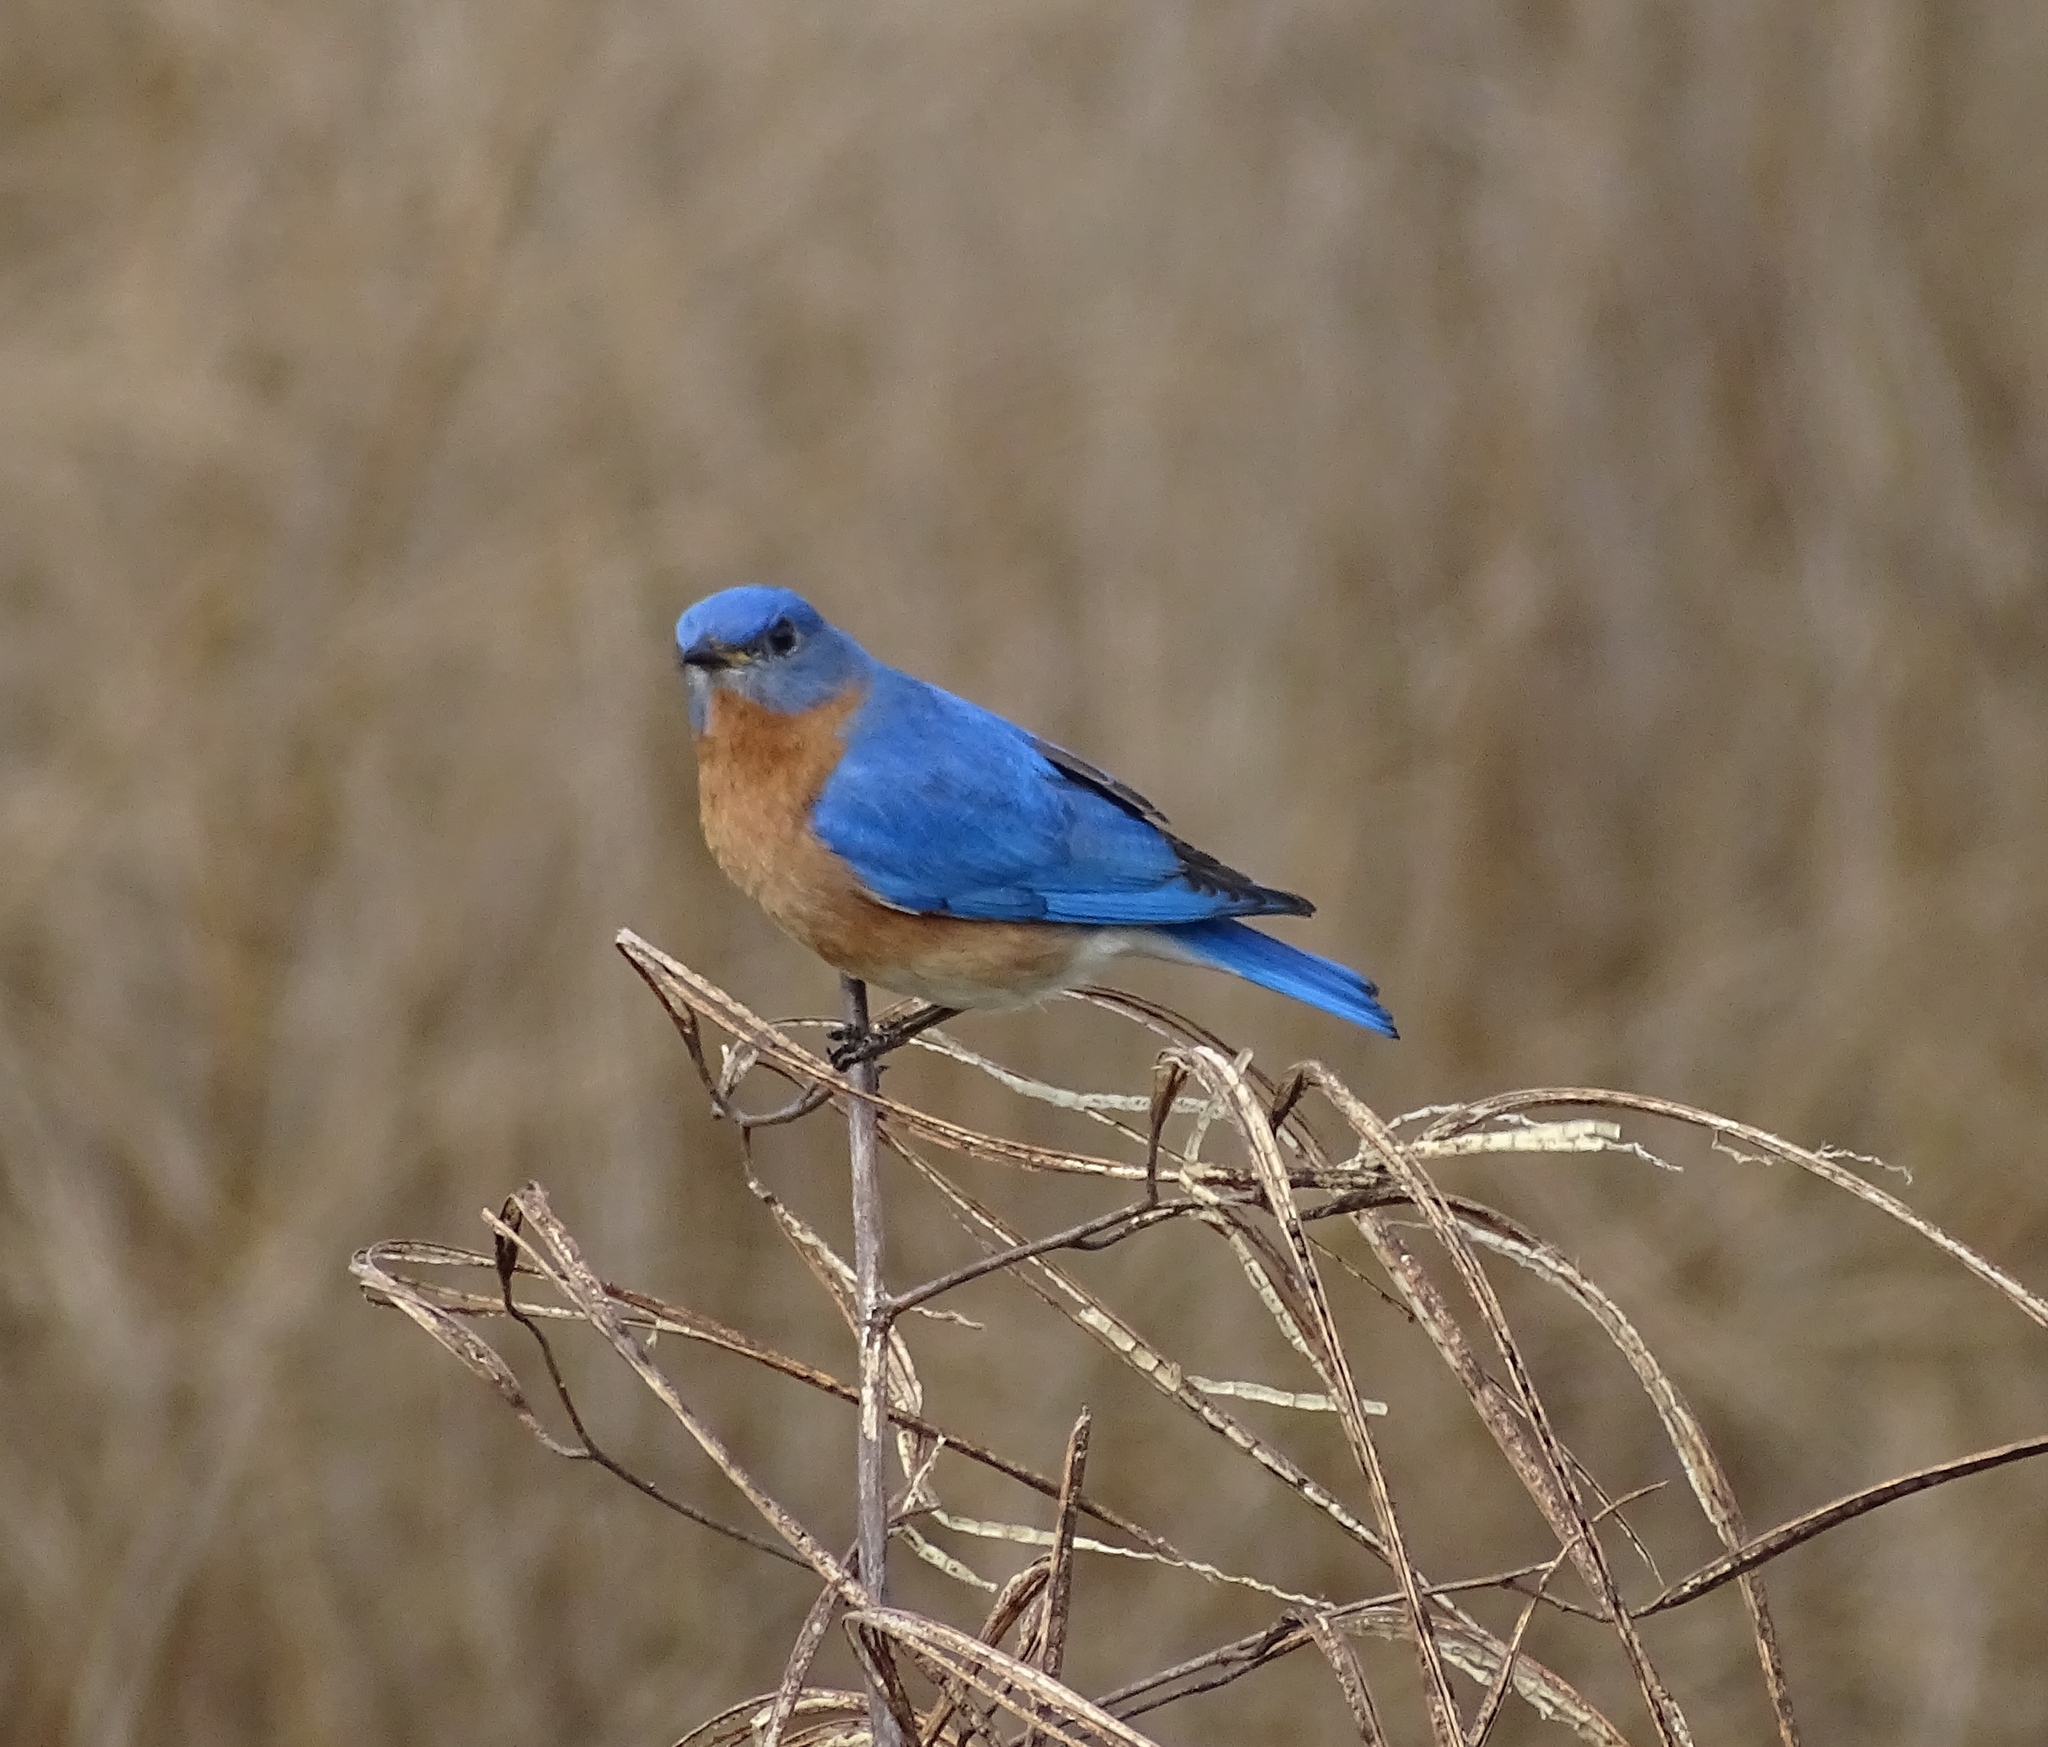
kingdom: Animalia
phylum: Chordata
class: Aves
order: Passeriformes
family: Turdidae
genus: Sialia
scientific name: Sialia sialis
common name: Eastern bluebird
